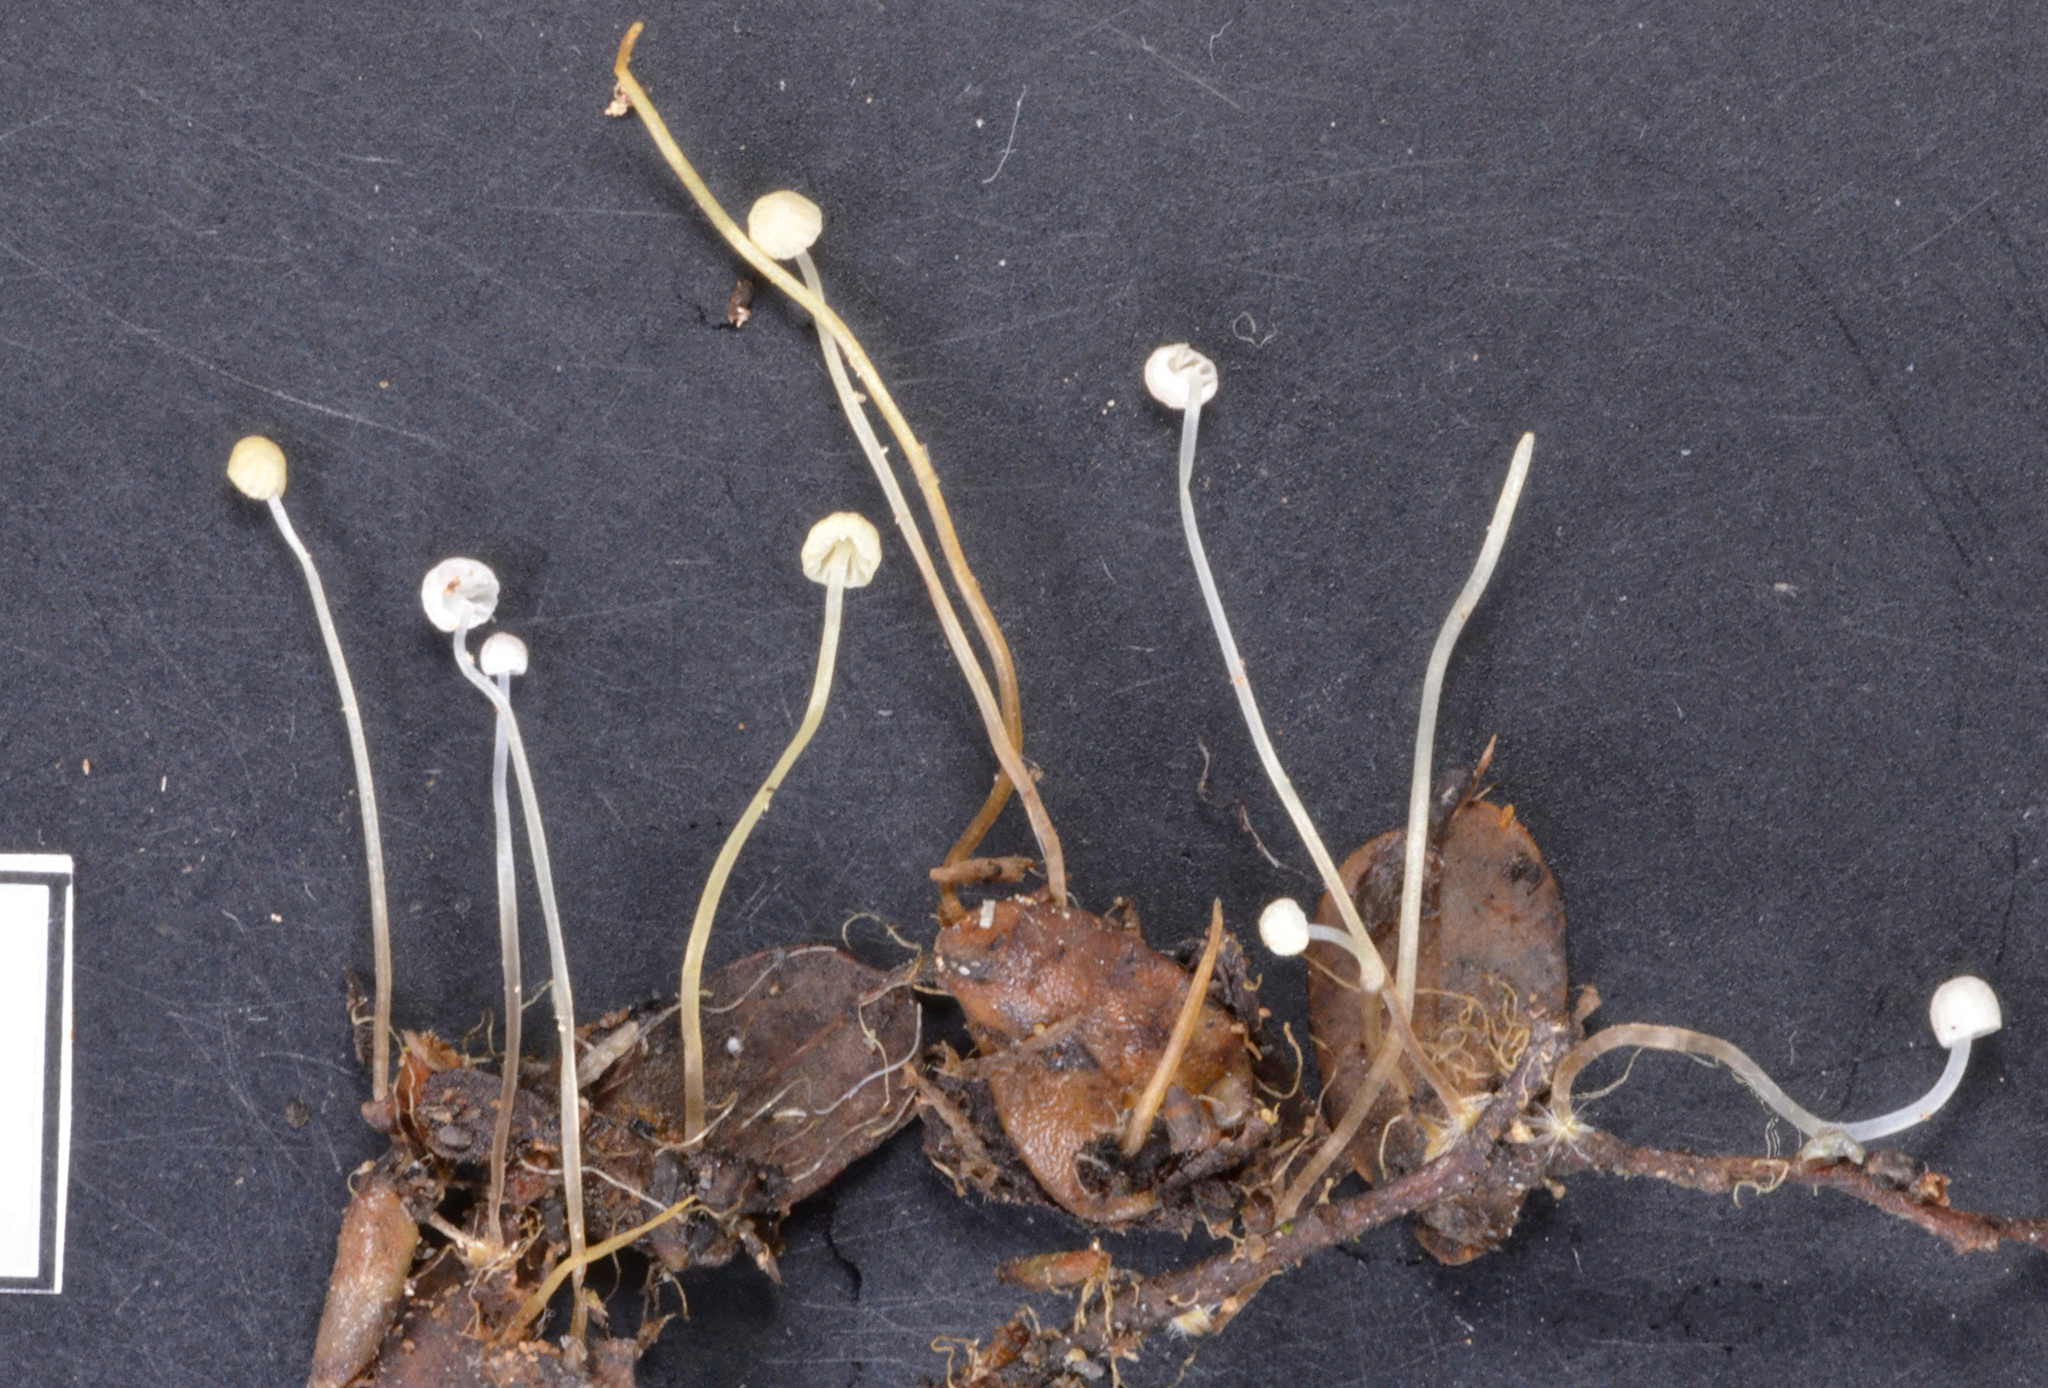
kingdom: Fungi
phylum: Basidiomycota
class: Agaricomycetes
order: Agaricales
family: Mycenaceae
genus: Mycena
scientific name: Mycena maldea
